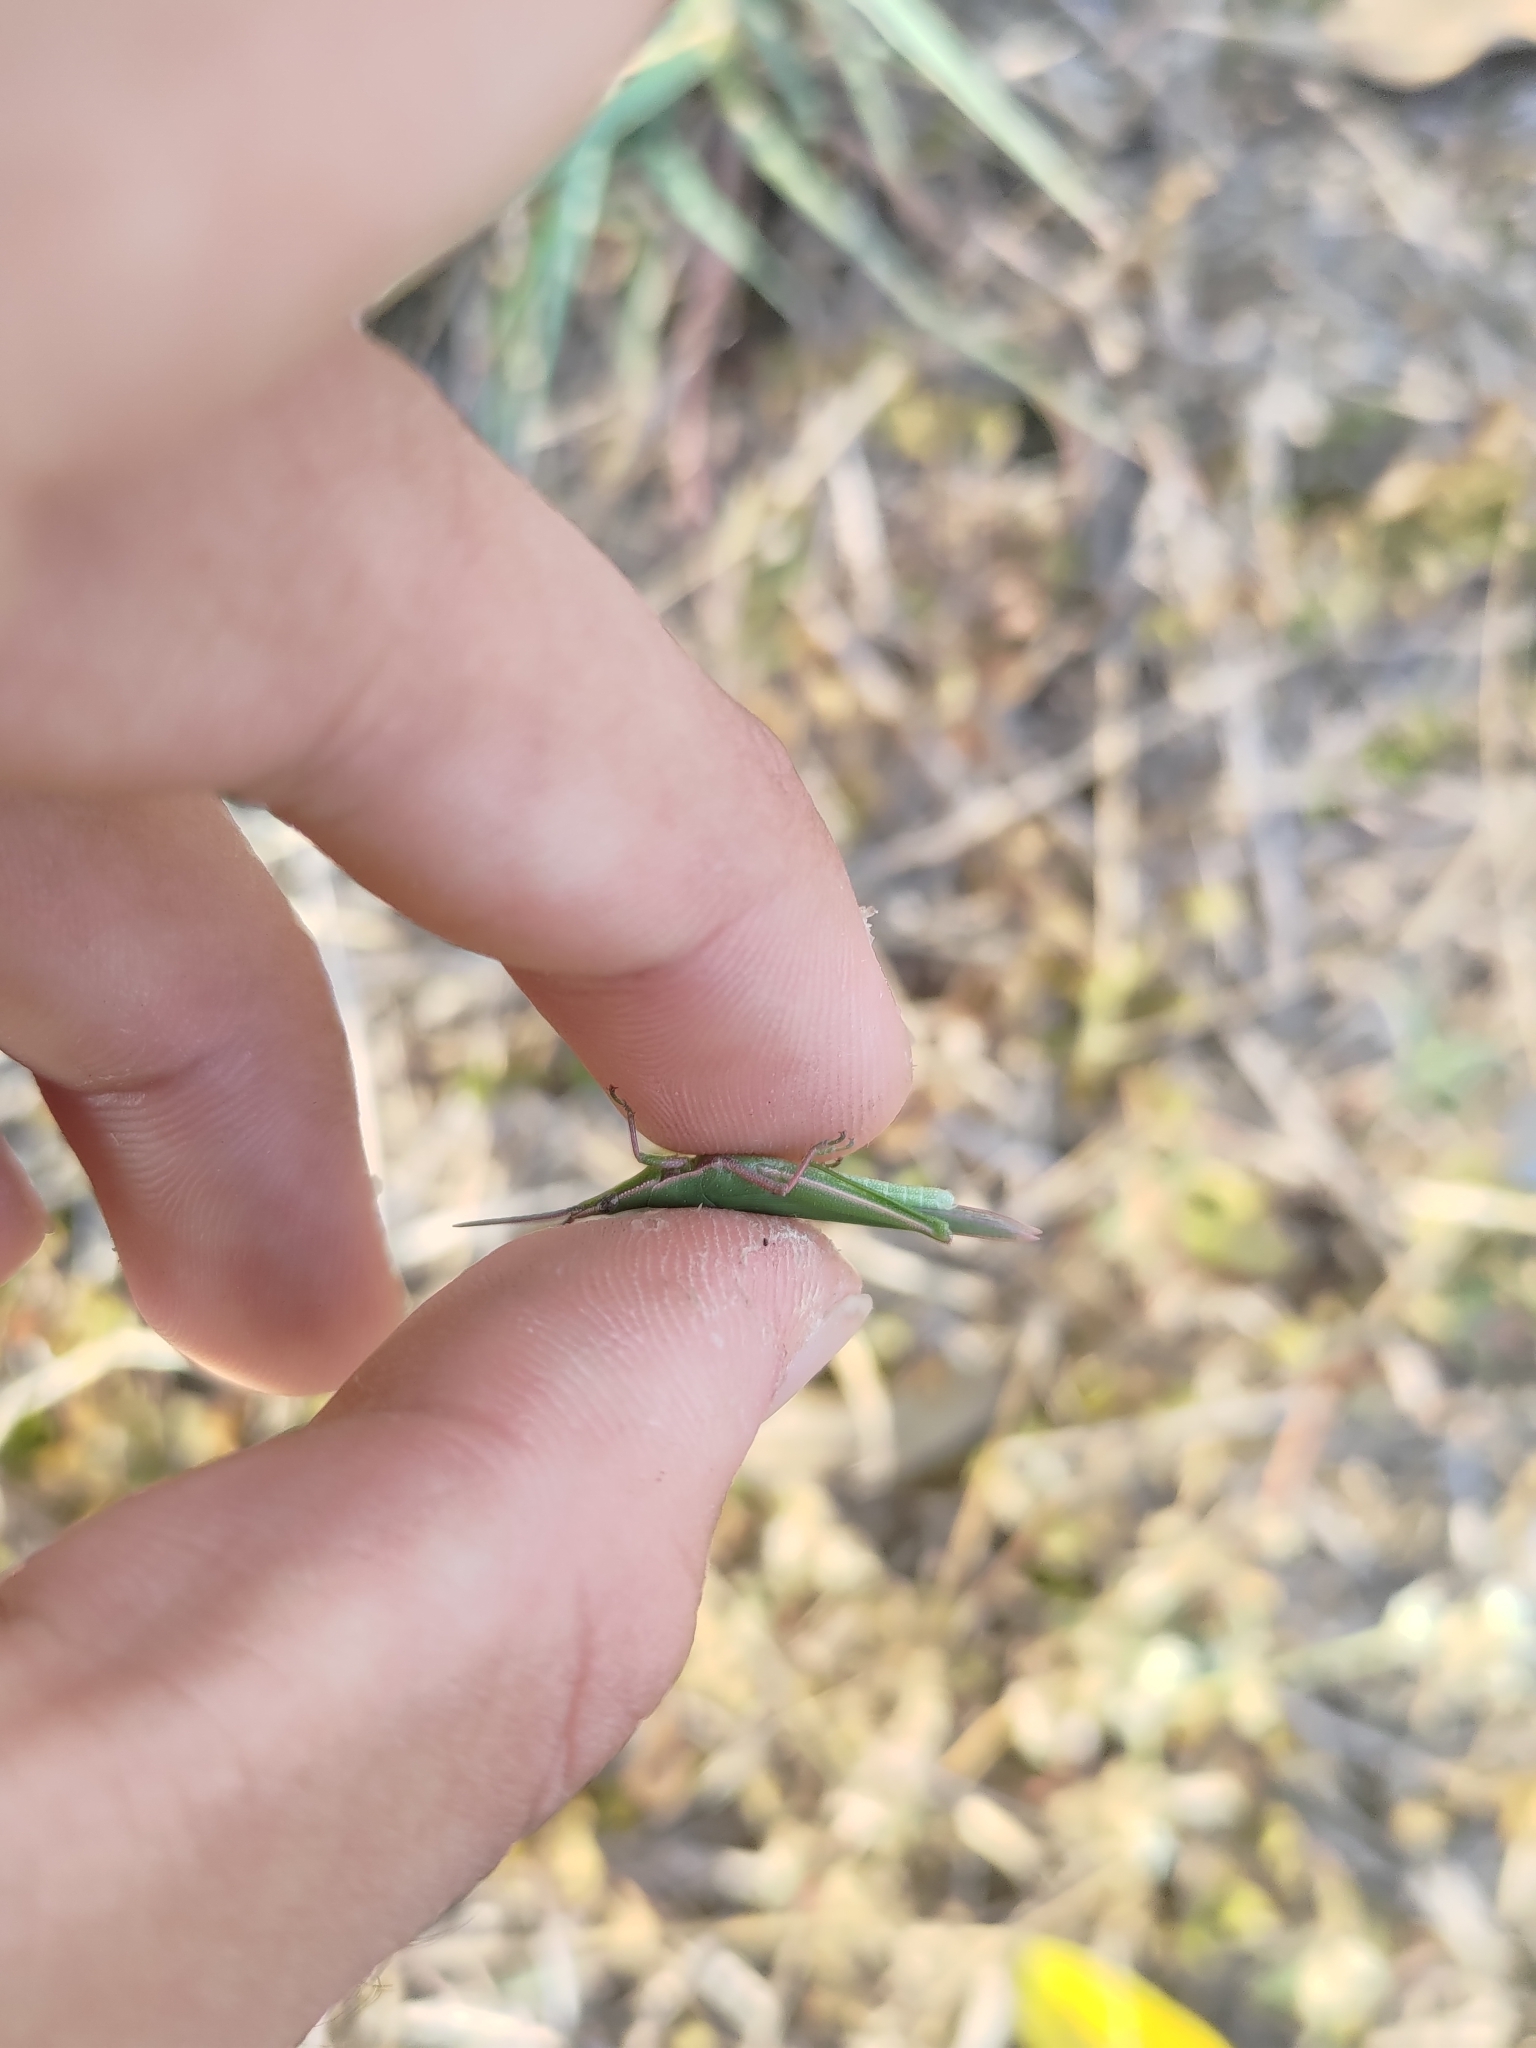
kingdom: Animalia
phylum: Arthropoda
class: Insecta
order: Orthoptera
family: Pyrgomorphidae
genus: Atractomorpha
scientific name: Atractomorpha sinensis
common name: Pinkwinged grasshopper
